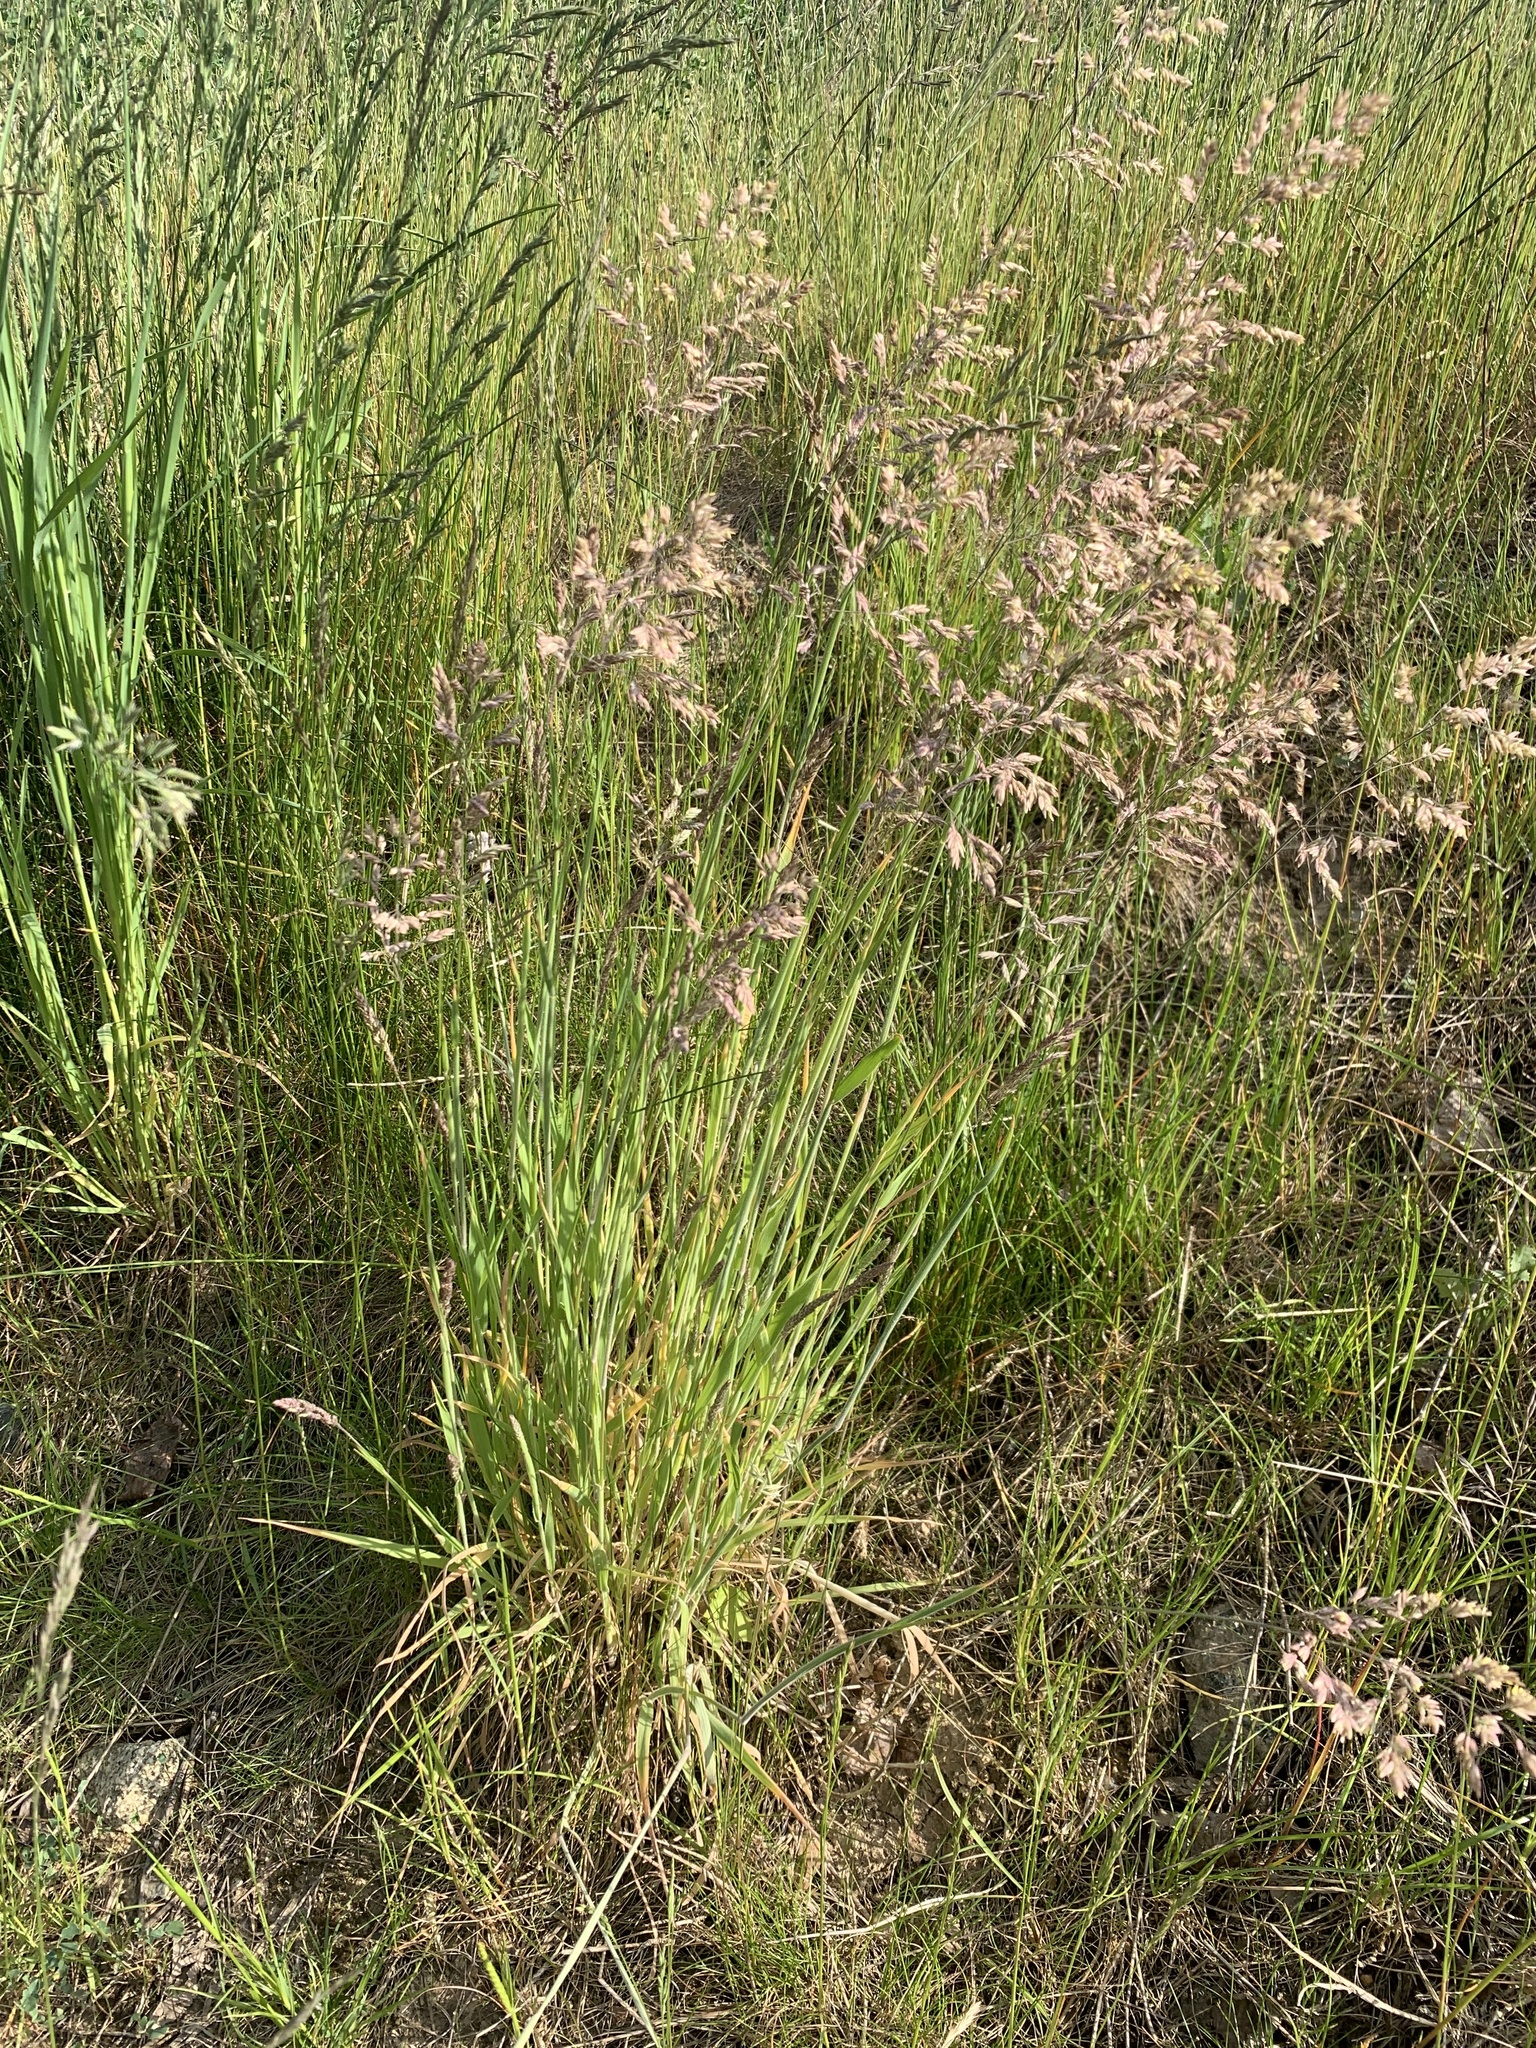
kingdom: Plantae
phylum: Tracheophyta
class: Liliopsida
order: Poales
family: Poaceae
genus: Holcus
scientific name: Holcus lanatus
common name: Yorkshire-fog
